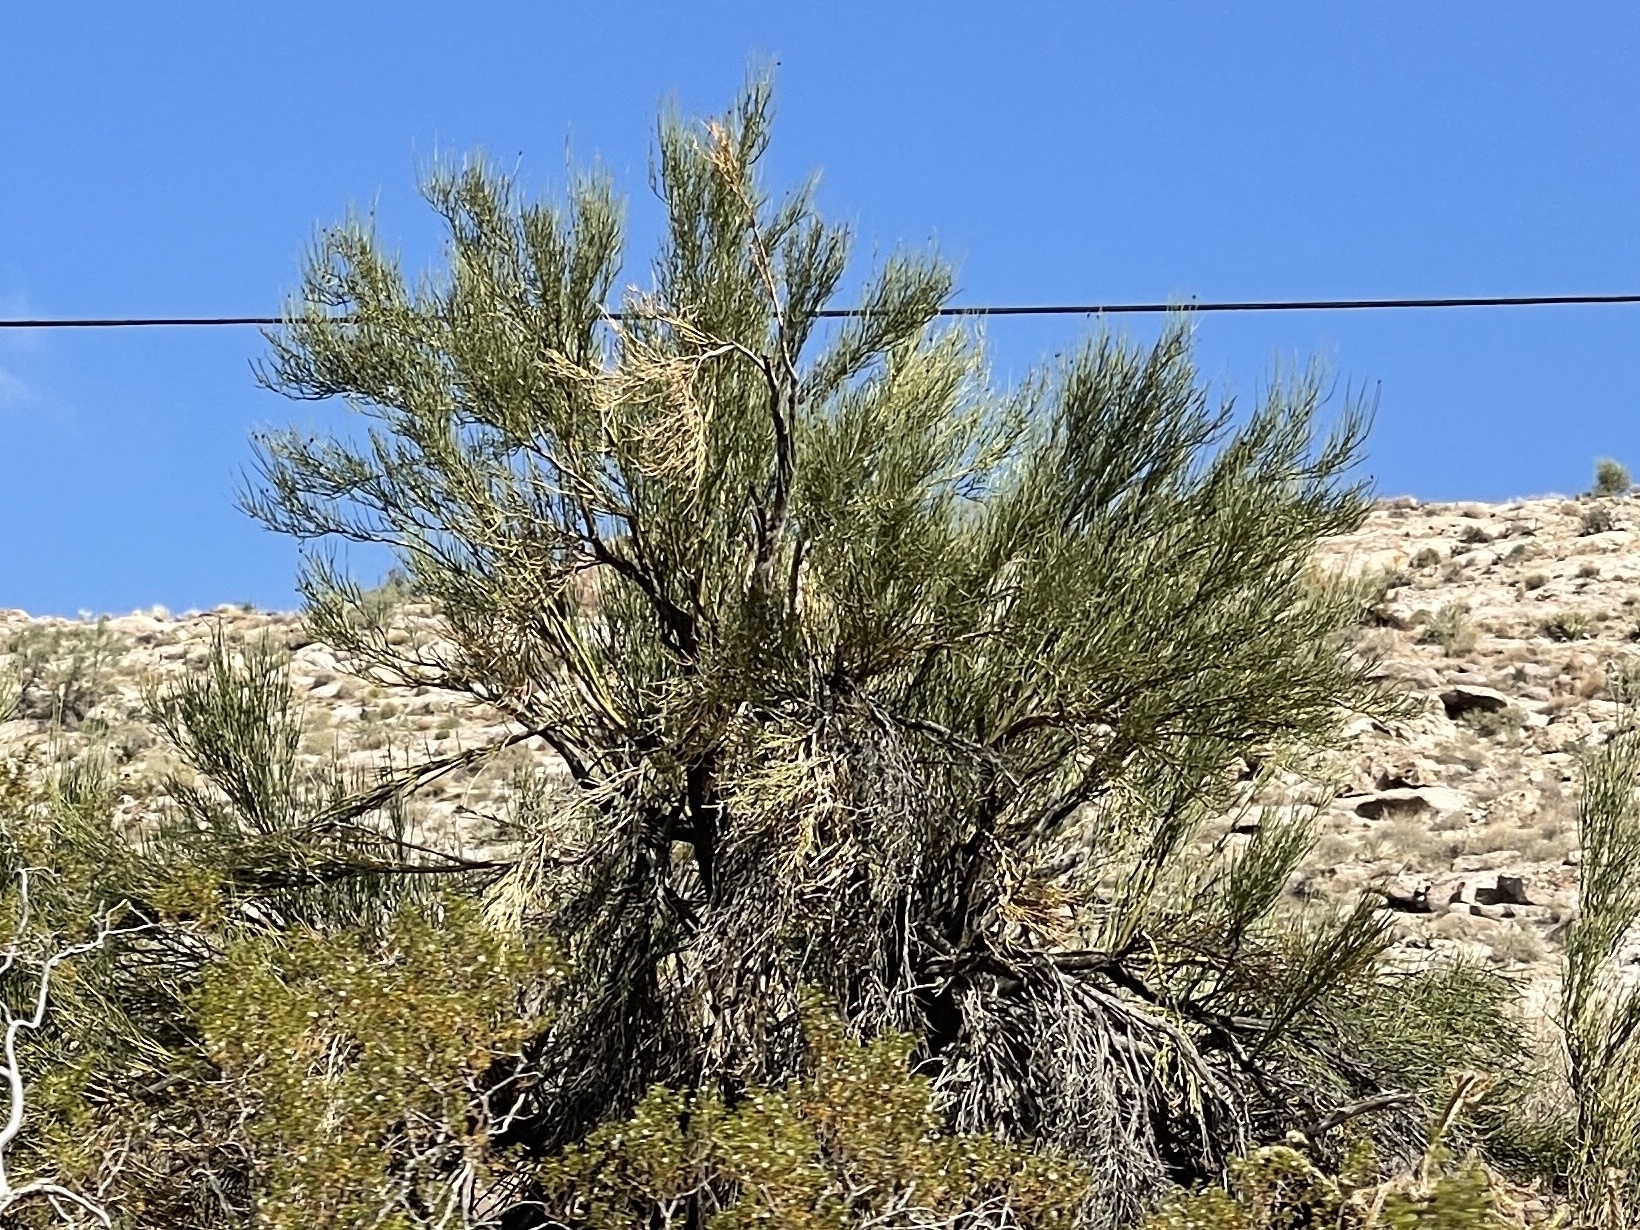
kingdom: Plantae
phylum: Tracheophyta
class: Magnoliopsida
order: Celastrales
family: Celastraceae
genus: Canotia
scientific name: Canotia holacantha
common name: Crucifixion thorns
